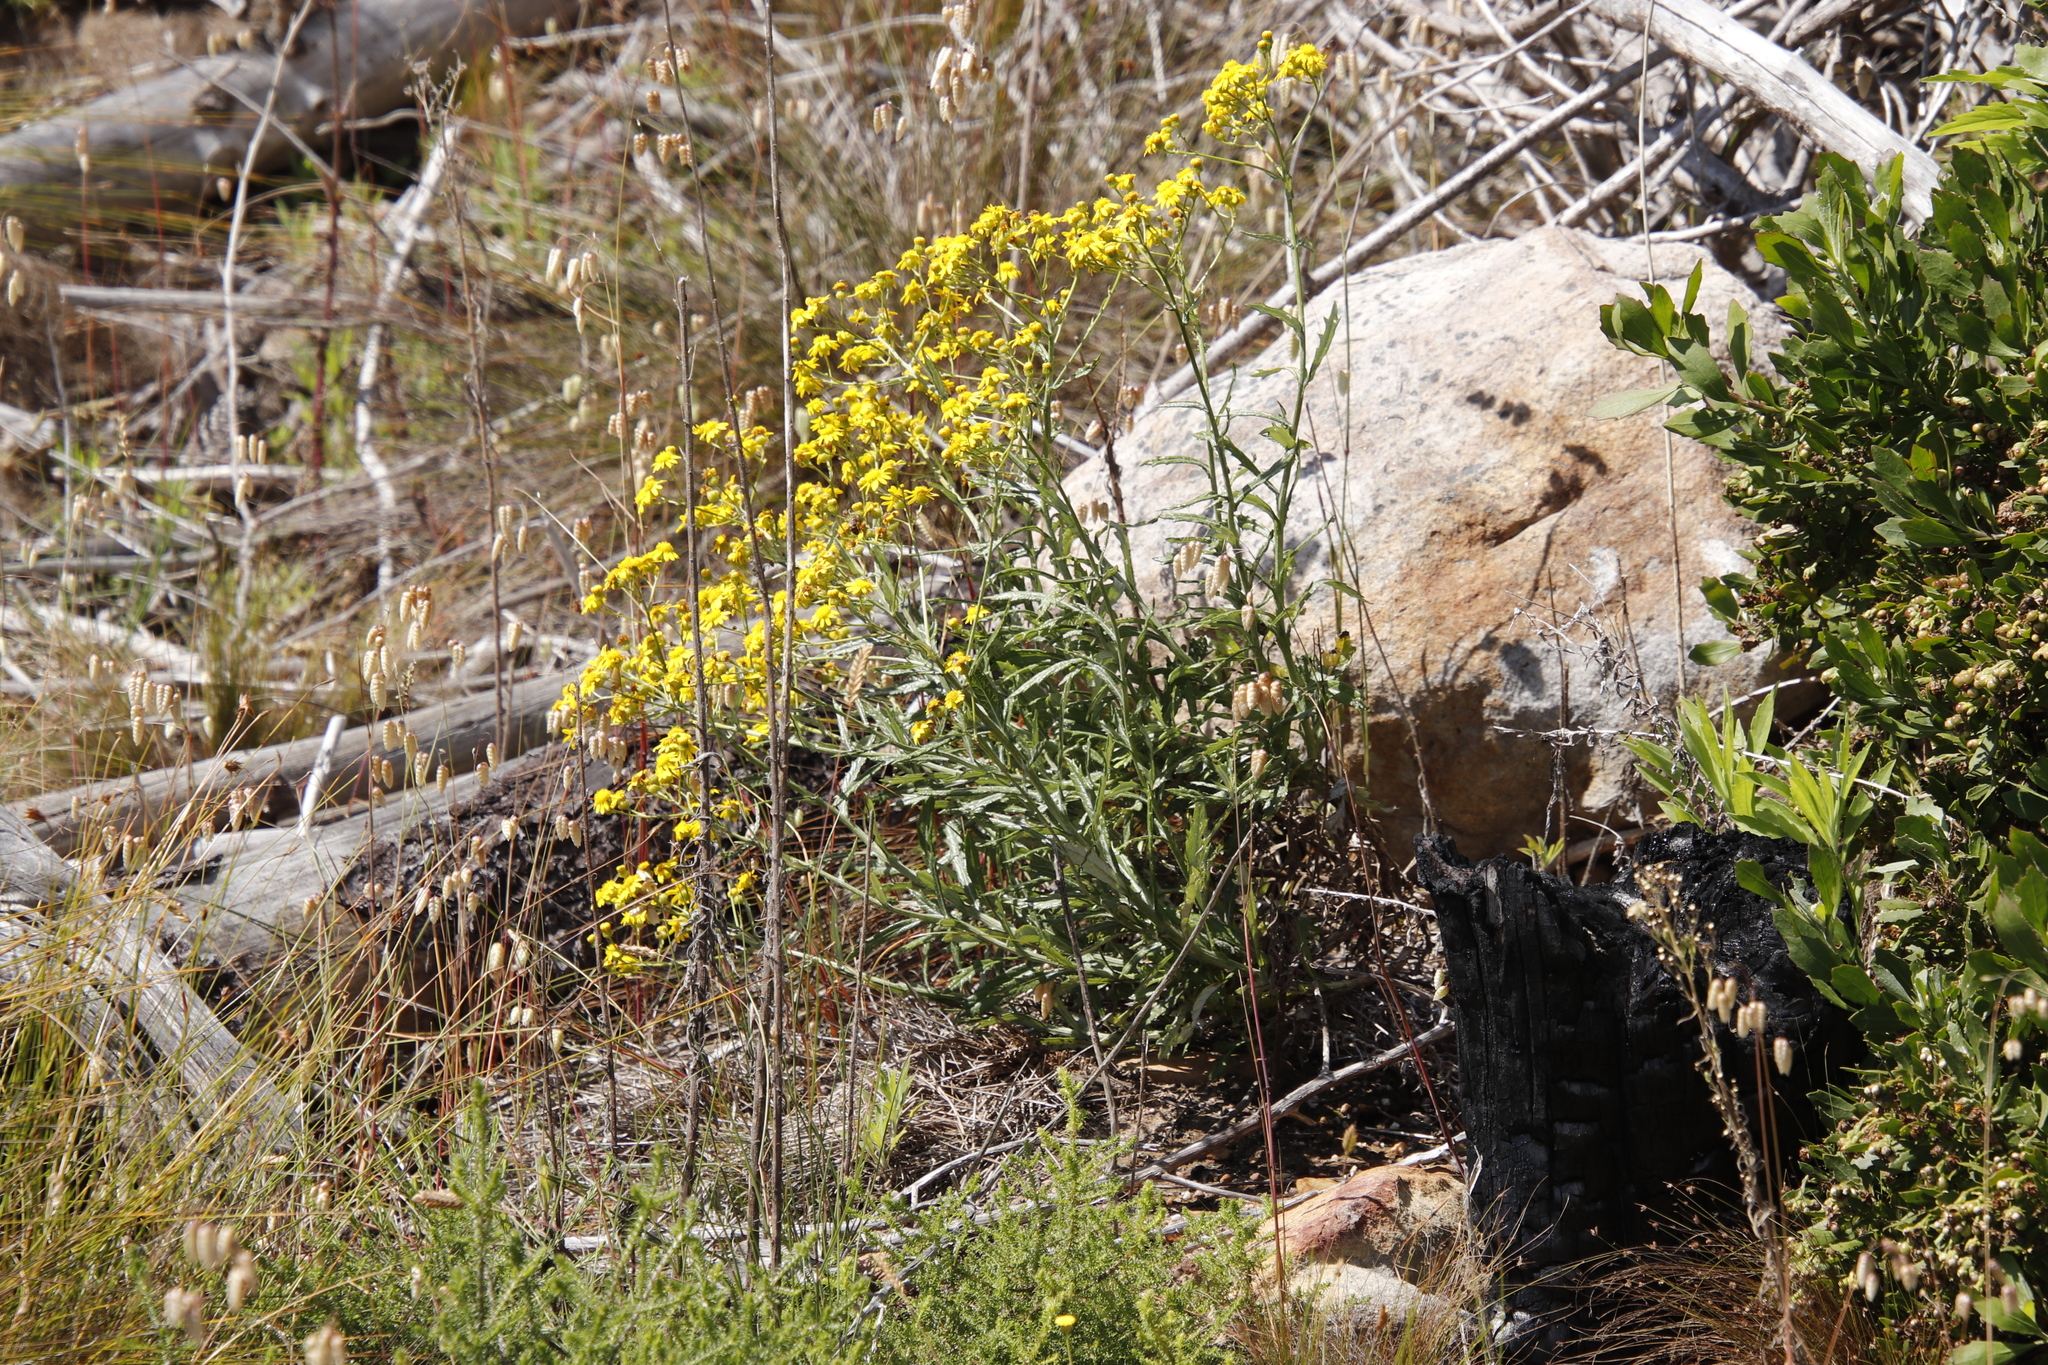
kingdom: Plantae
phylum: Tracheophyta
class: Magnoliopsida
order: Asterales
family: Asteraceae
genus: Senecio
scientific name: Senecio pterophorus
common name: Shoddy ragwort
